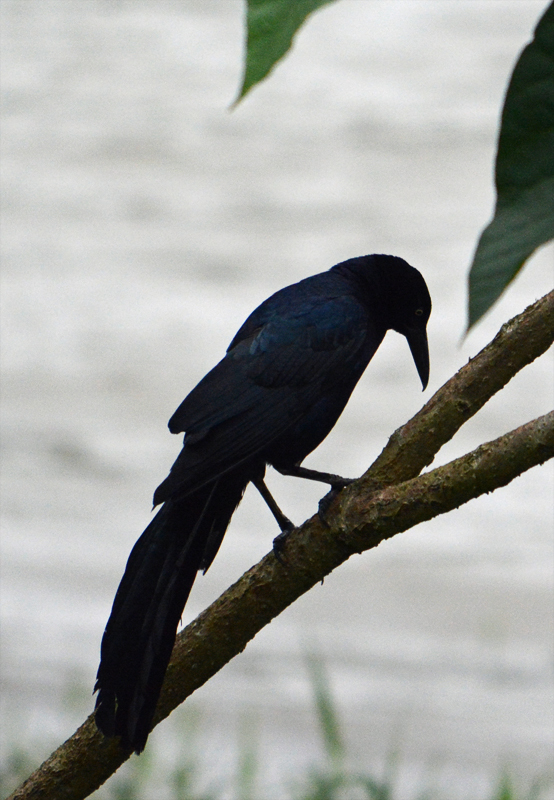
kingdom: Animalia
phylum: Chordata
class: Aves
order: Passeriformes
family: Icteridae
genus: Quiscalus
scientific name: Quiscalus mexicanus
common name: Great-tailed grackle
